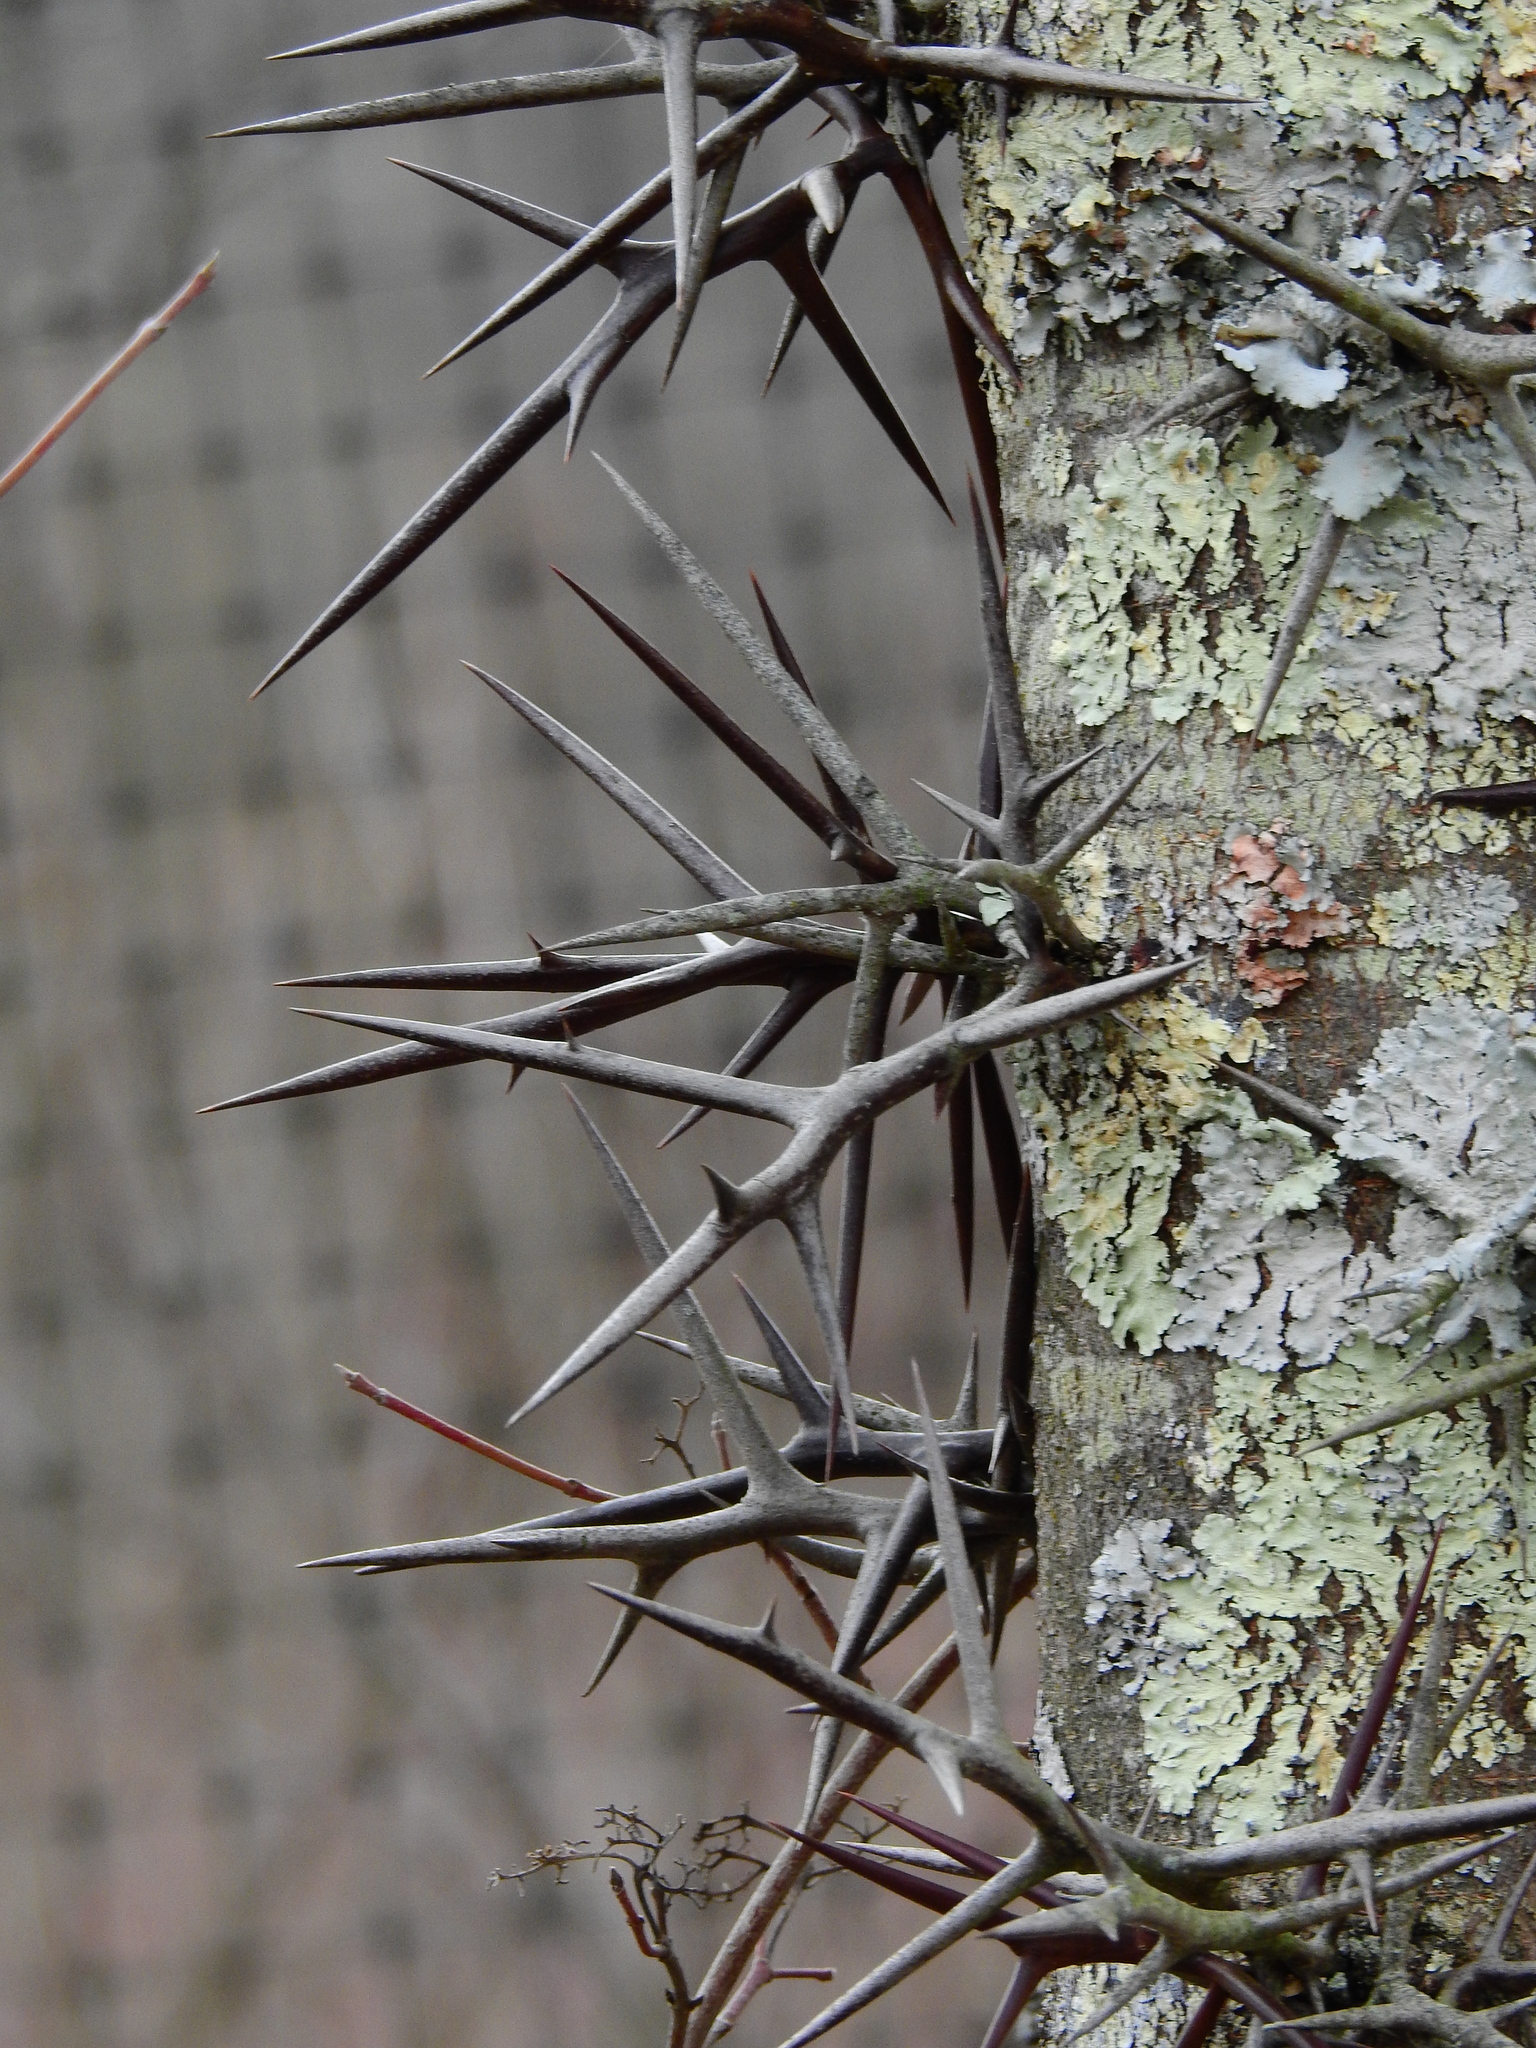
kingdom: Plantae
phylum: Tracheophyta
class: Magnoliopsida
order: Fabales
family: Fabaceae
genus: Gleditsia
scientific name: Gleditsia triacanthos
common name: Common honeylocust
